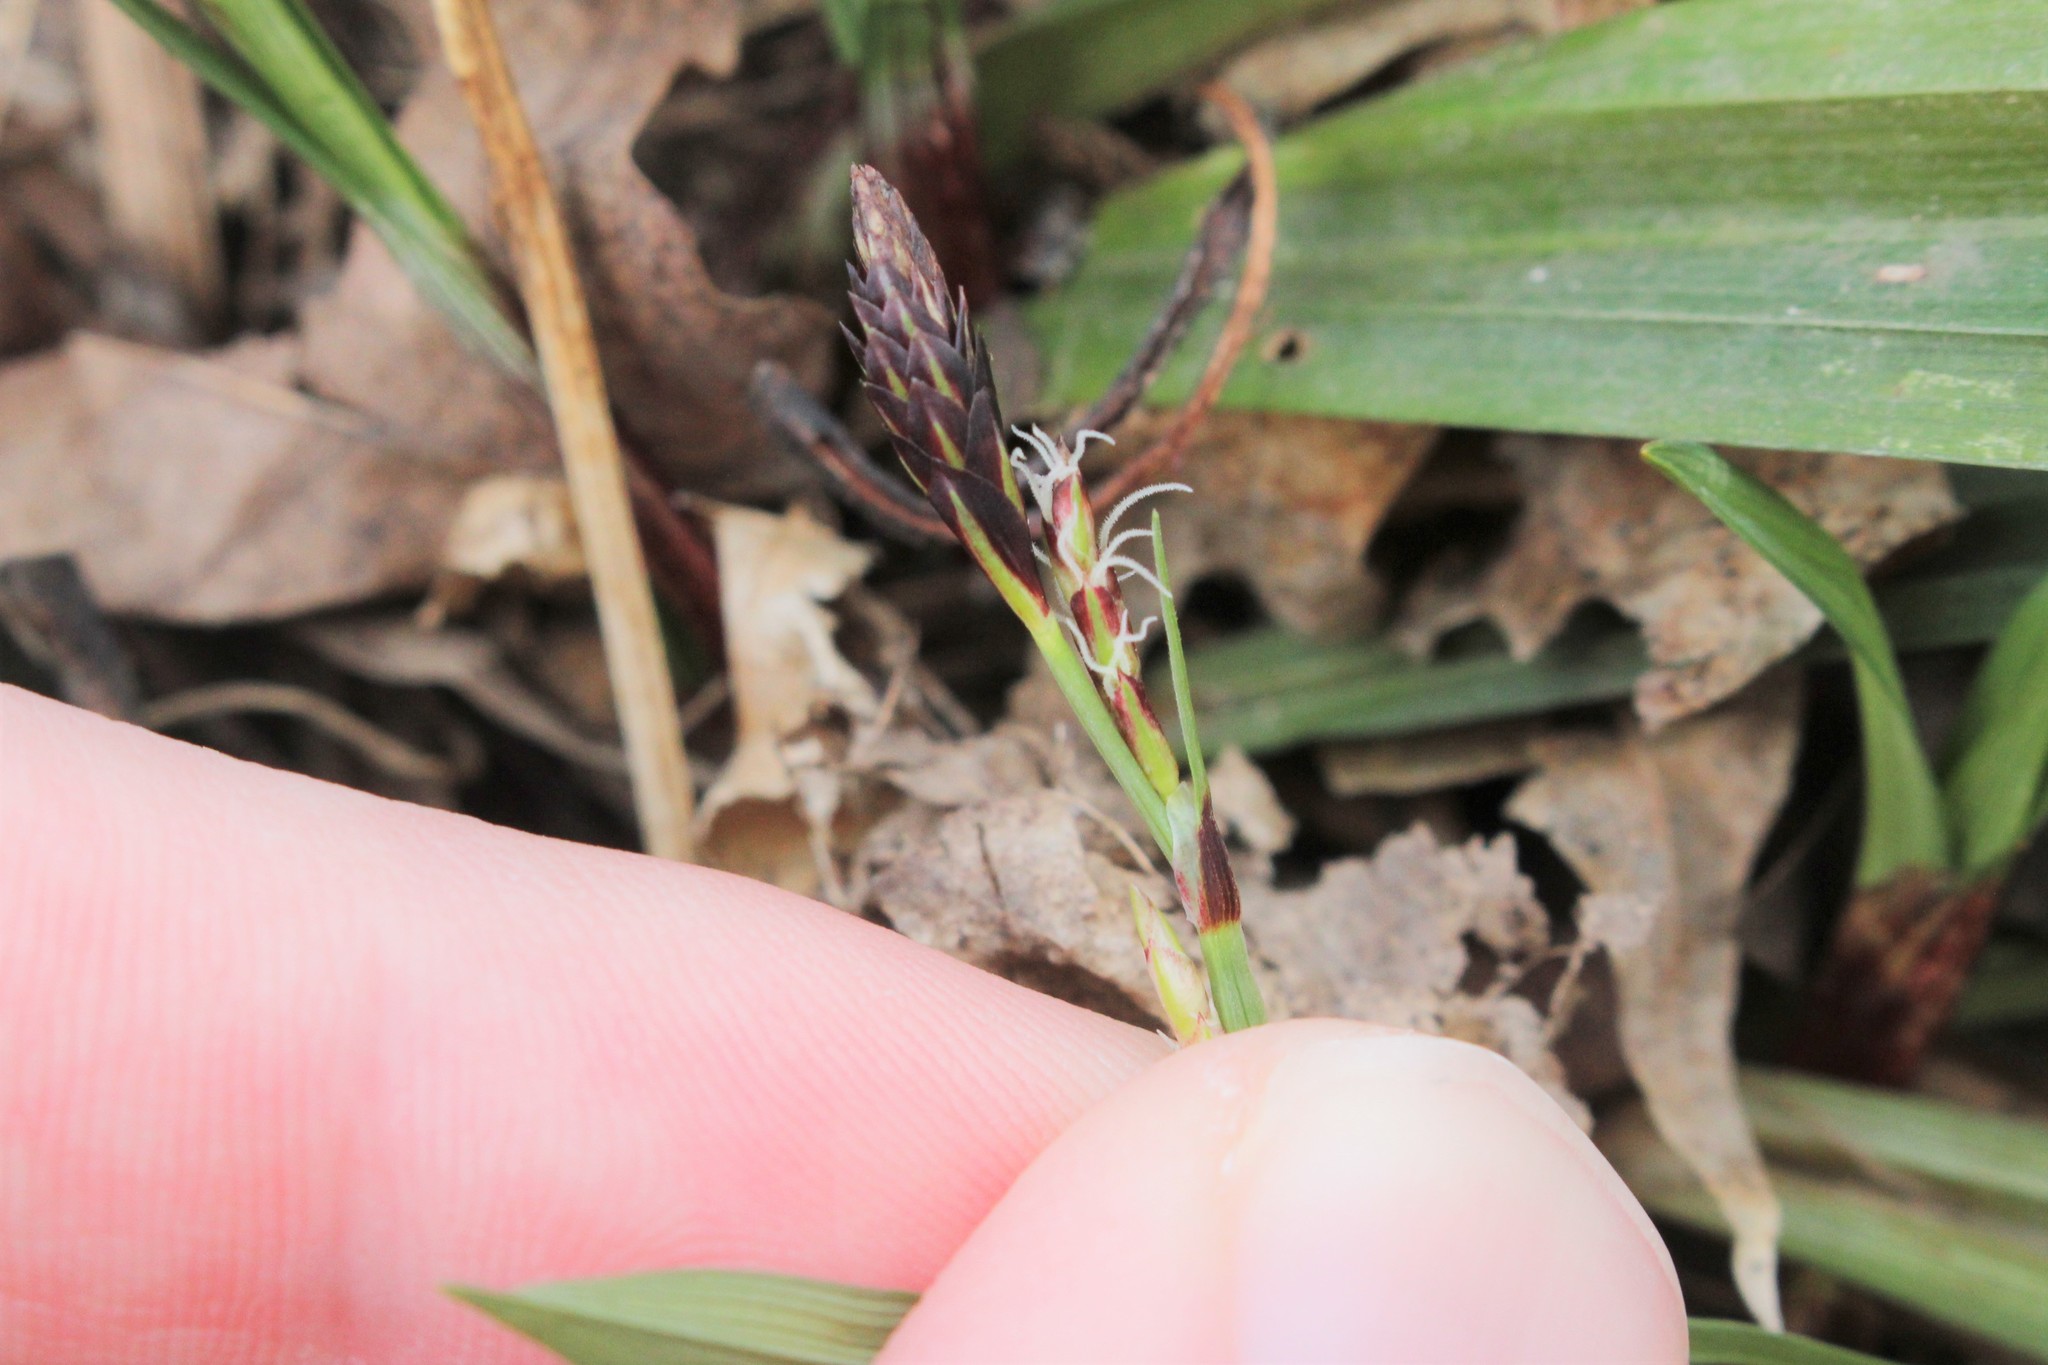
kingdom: Plantae
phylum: Tracheophyta
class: Liliopsida
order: Poales
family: Cyperaceae
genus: Carex
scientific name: Carex careyana
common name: Carey's sedge
